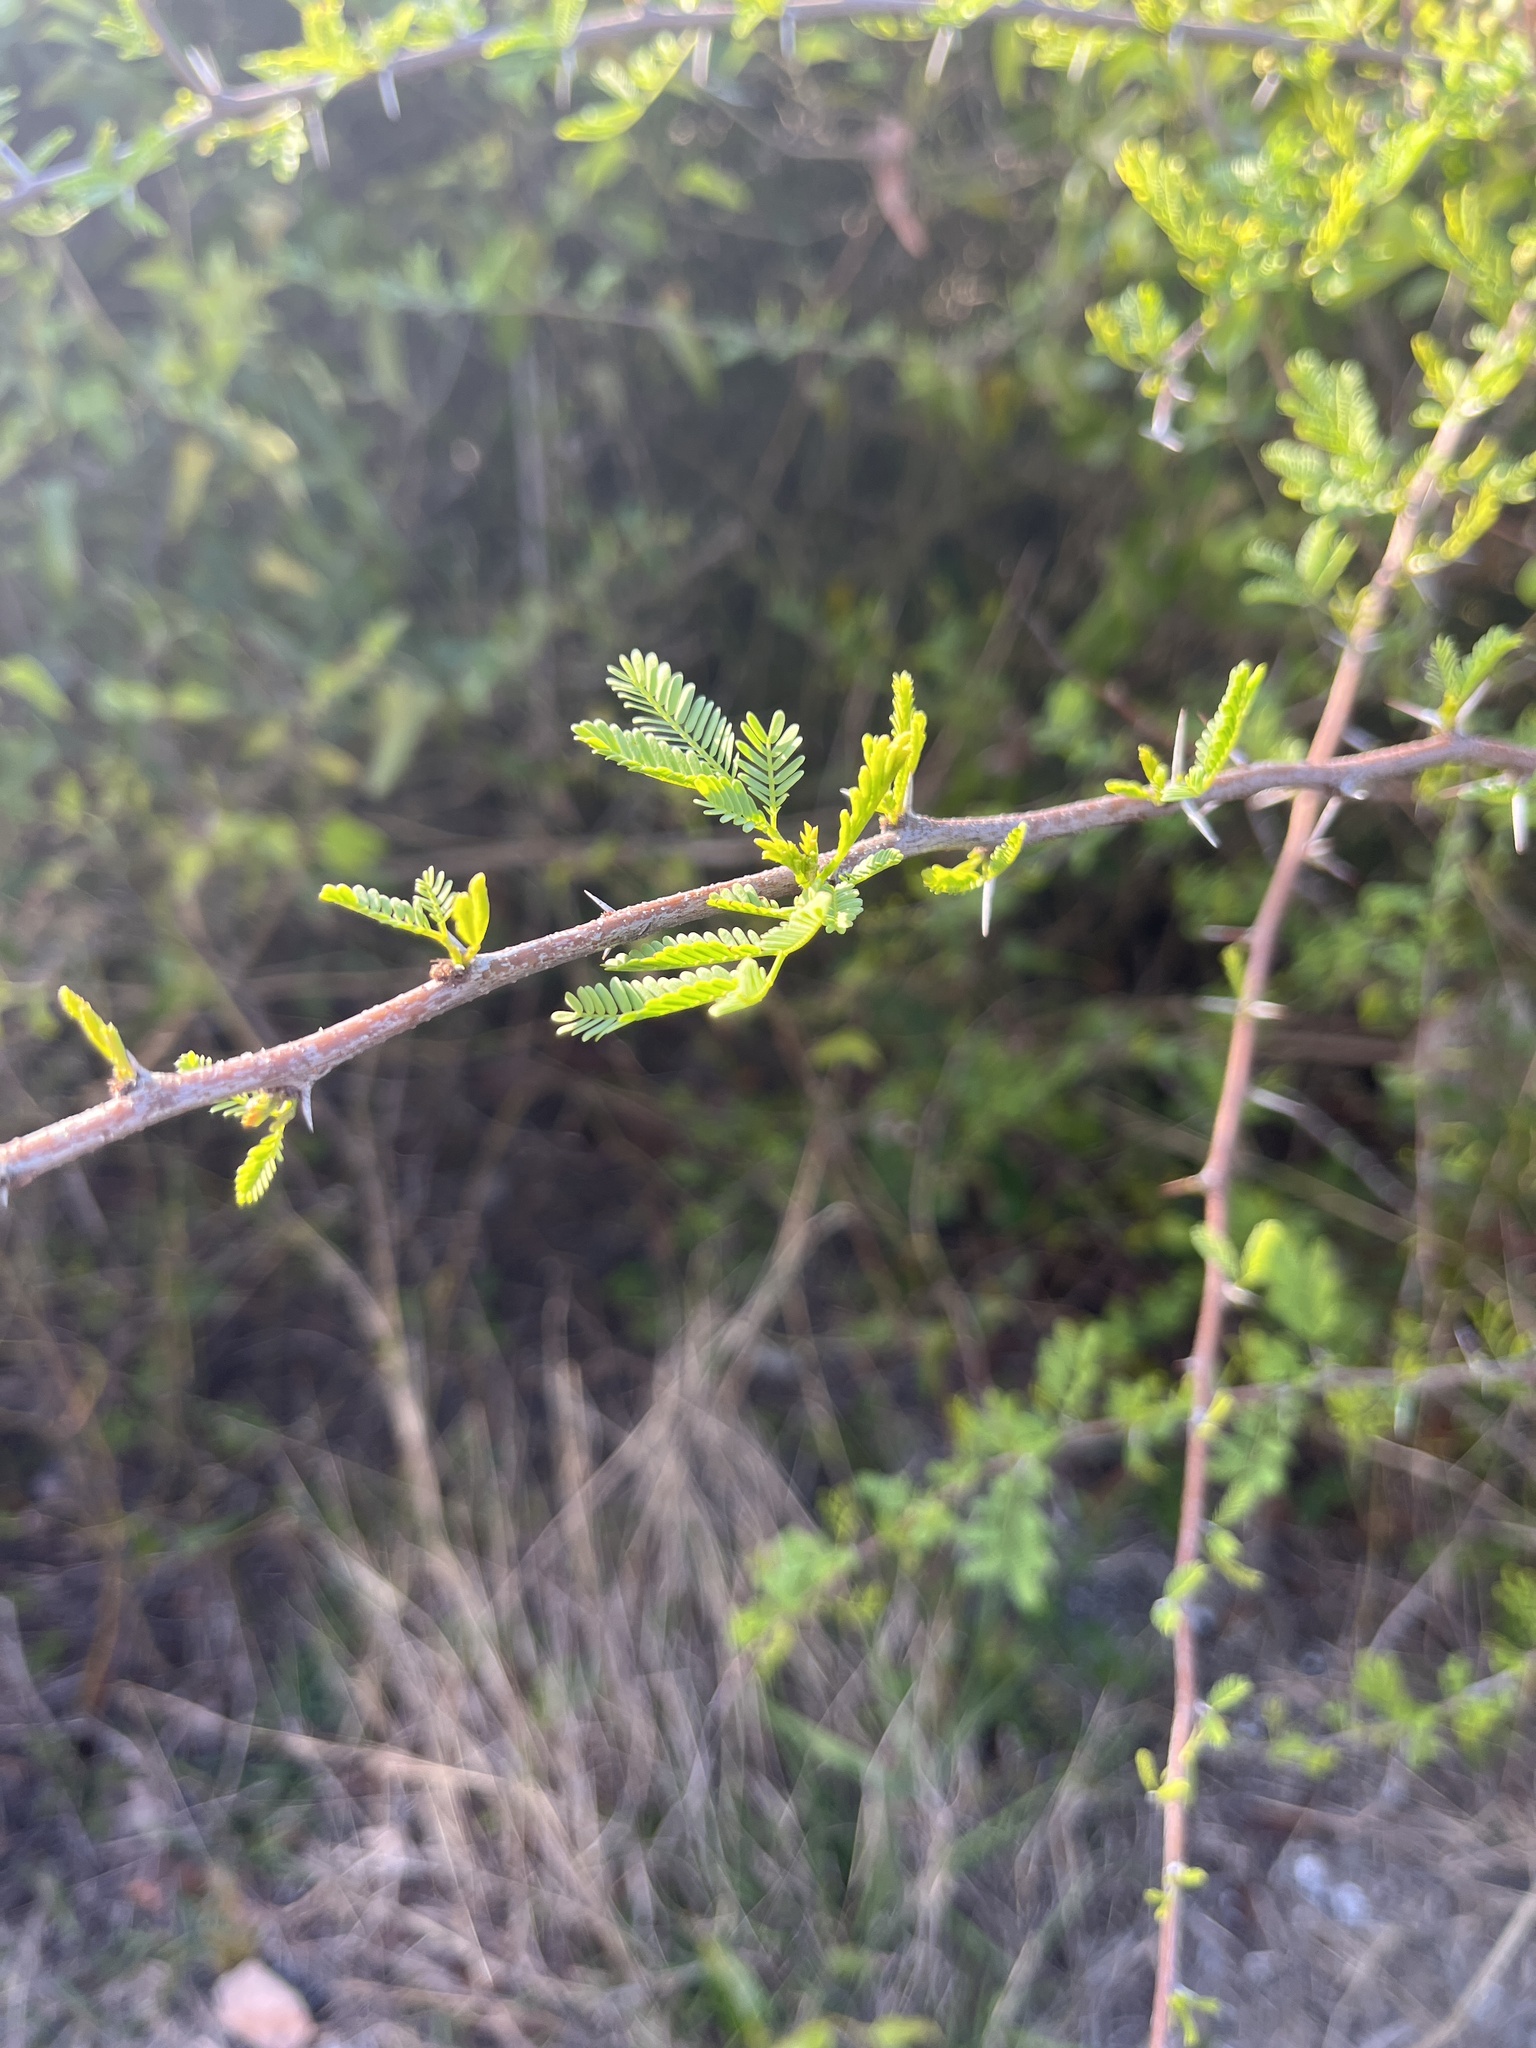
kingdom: Plantae
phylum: Tracheophyta
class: Magnoliopsida
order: Fabales
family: Fabaceae
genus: Vachellia
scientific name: Vachellia farnesiana
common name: Sweet acacia
